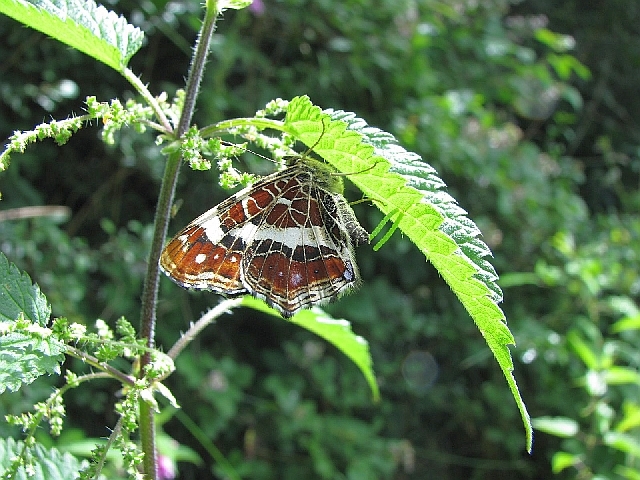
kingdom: Animalia
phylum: Arthropoda
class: Insecta
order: Lepidoptera
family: Nymphalidae
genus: Araschnia
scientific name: Araschnia levana
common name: Map butterfly
